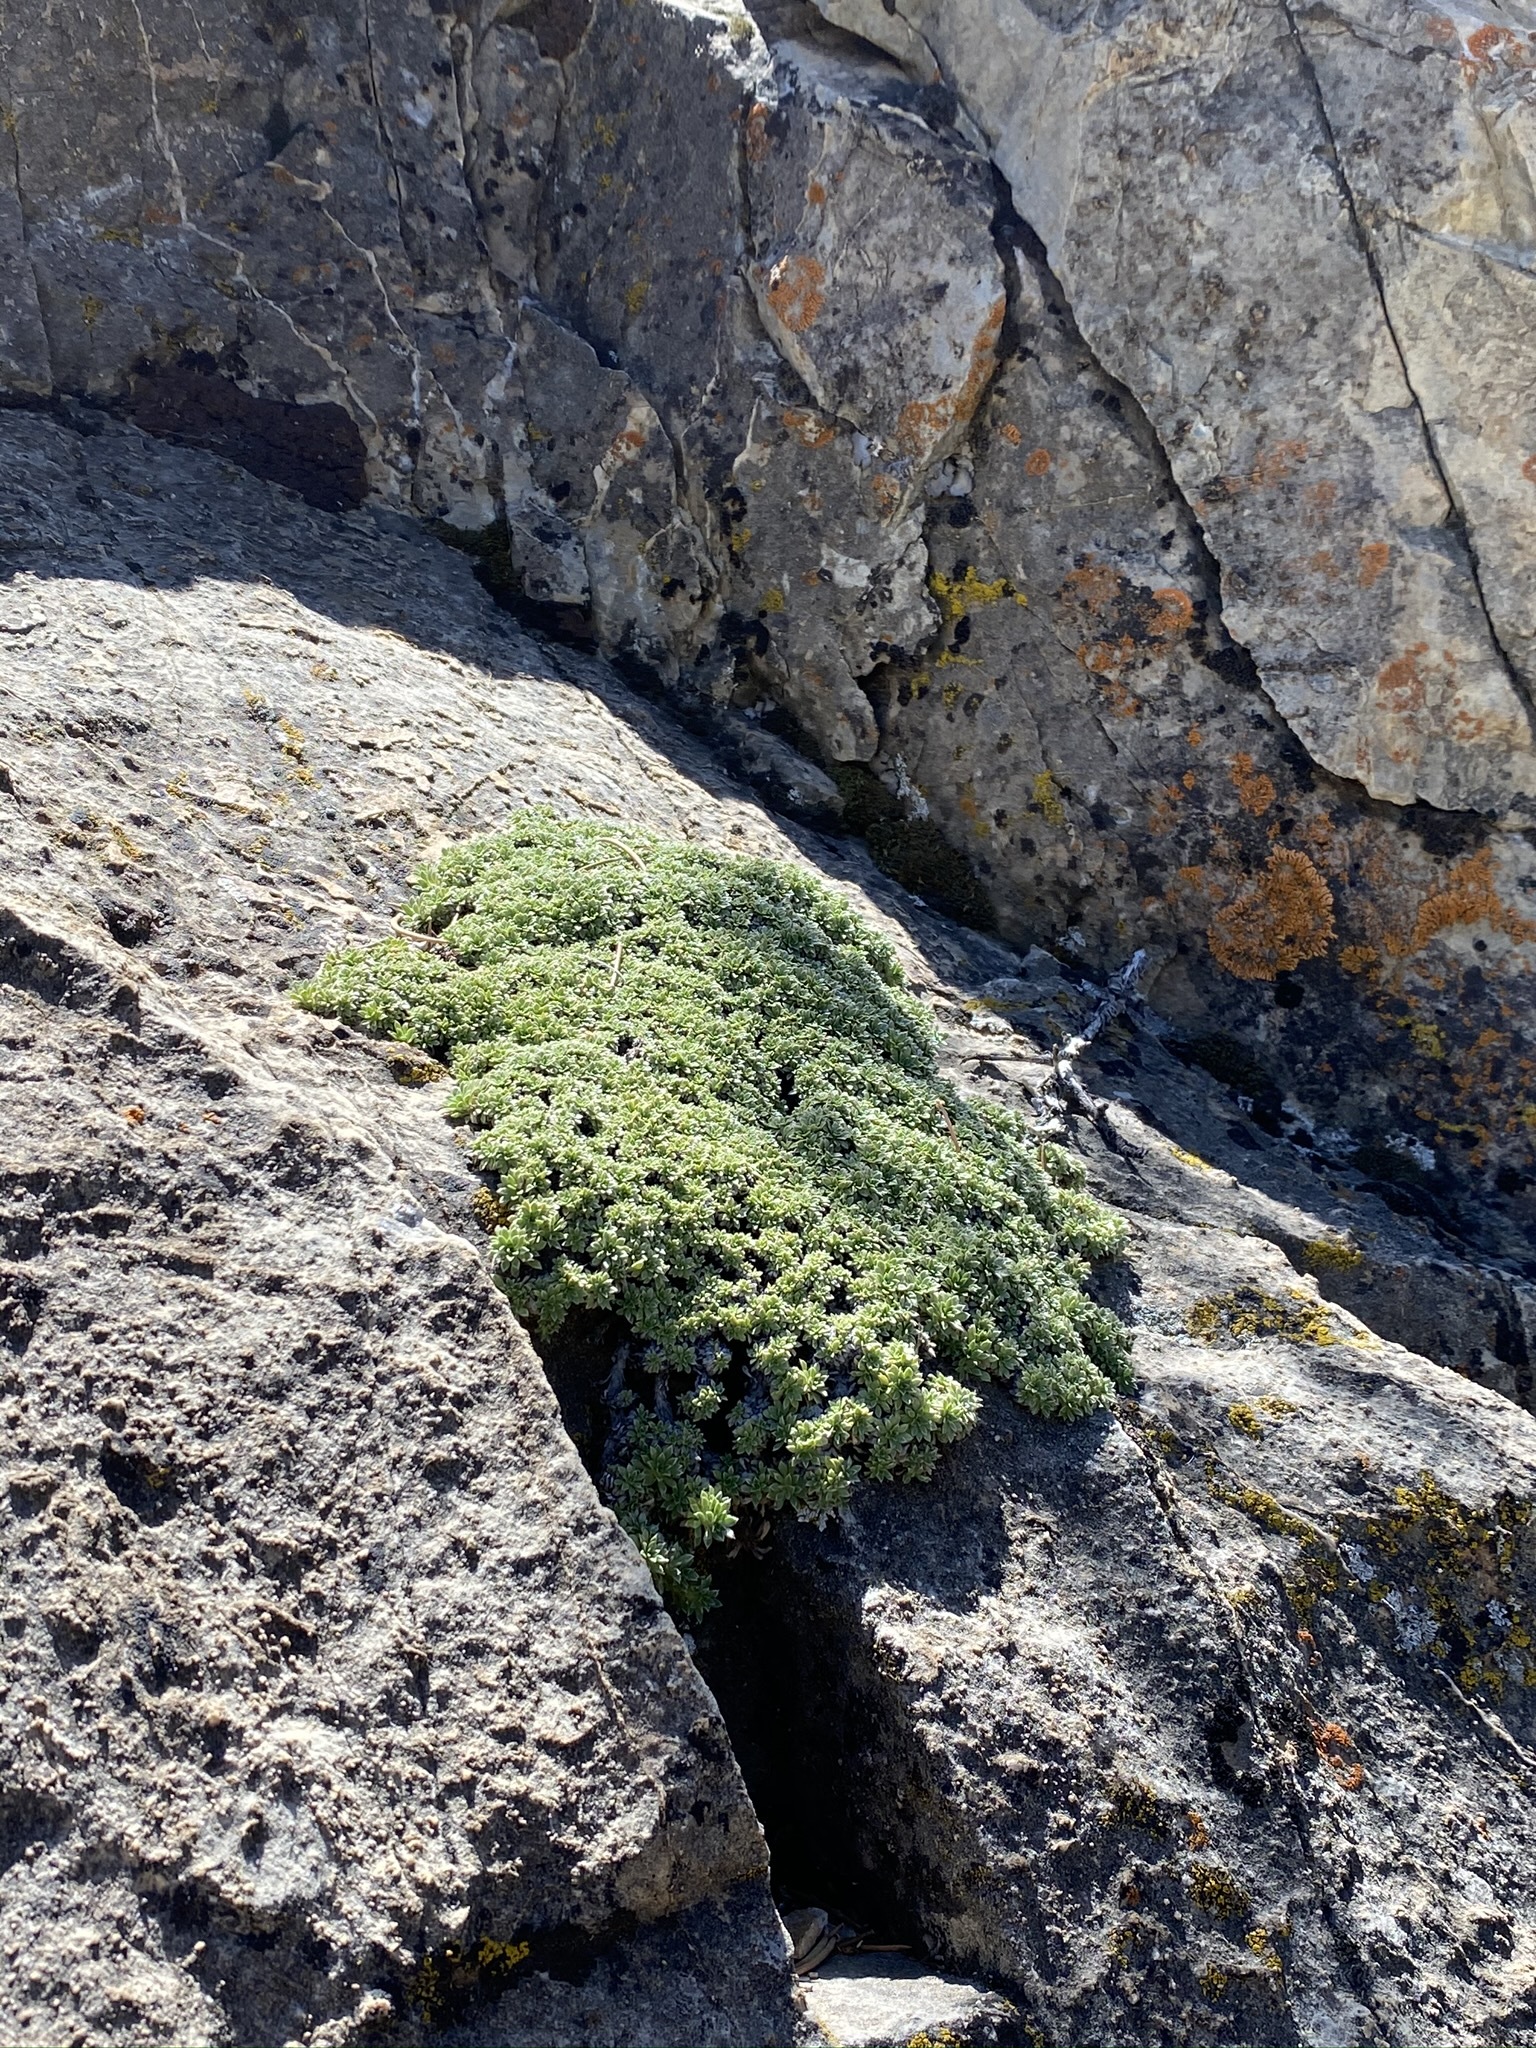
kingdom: Plantae
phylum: Tracheophyta
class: Magnoliopsida
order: Rosales
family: Rosaceae
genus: Petrophytum
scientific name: Petrophytum caespitosum
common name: Mat rockspirea
